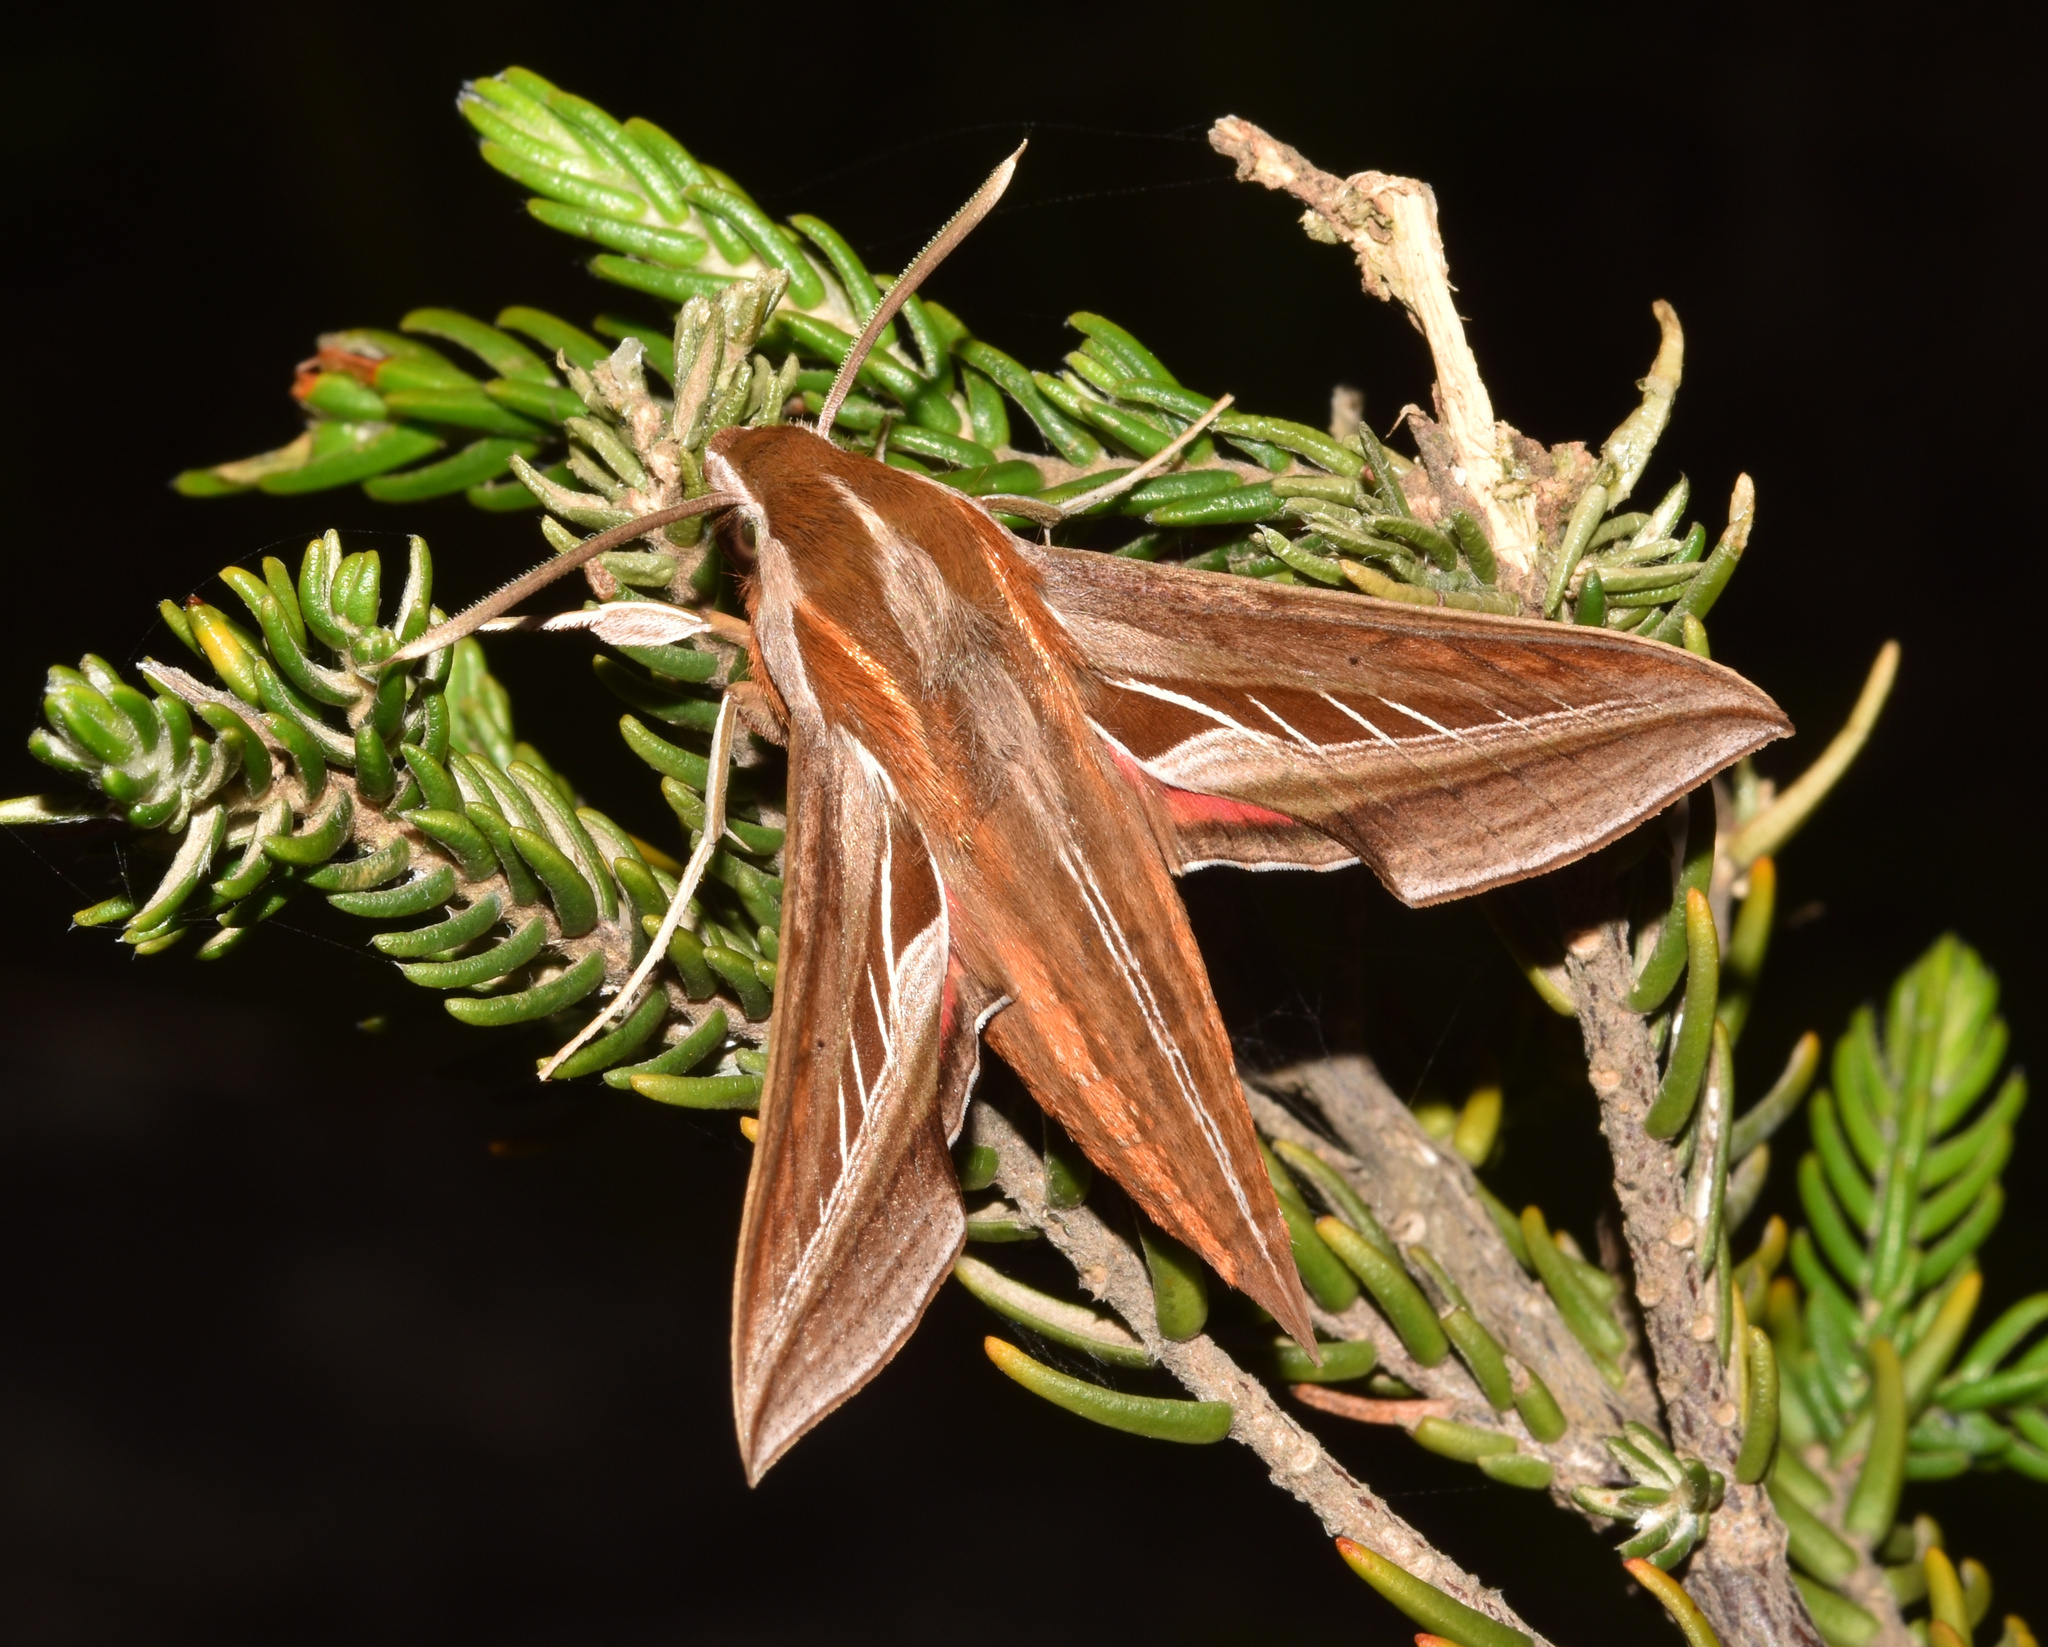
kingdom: Animalia
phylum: Arthropoda
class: Insecta
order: Lepidoptera
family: Sphingidae
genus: Basiothia
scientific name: Basiothia charis
